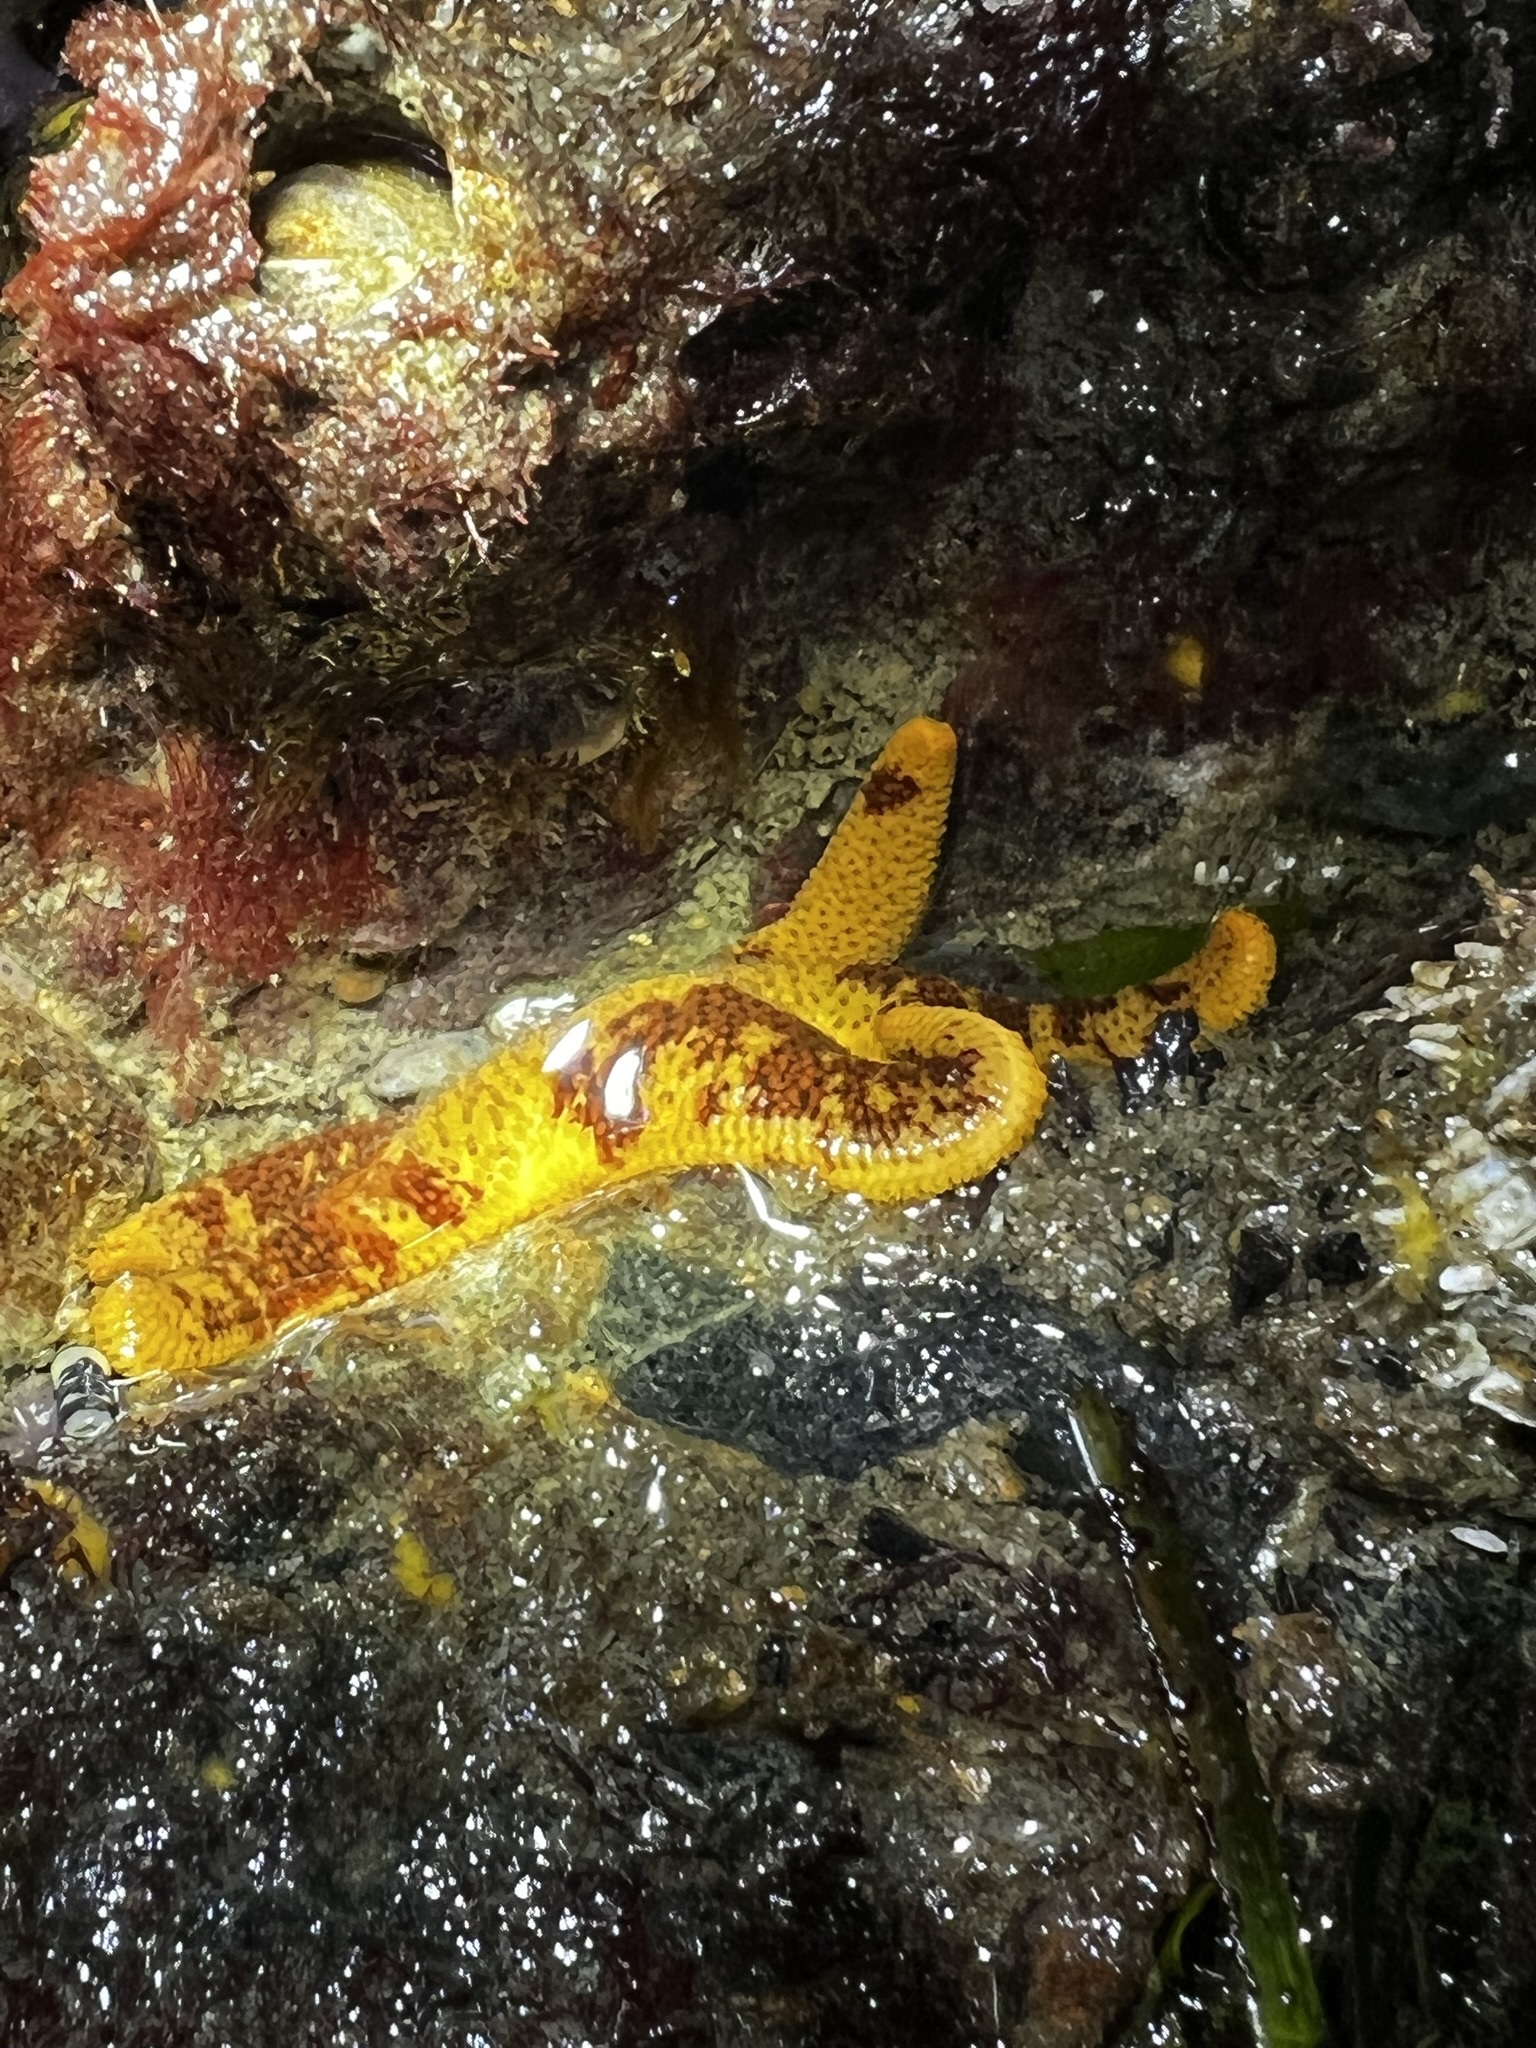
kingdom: Animalia
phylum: Echinodermata
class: Asteroidea
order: Spinulosida
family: Echinasteridae
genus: Henricia
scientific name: Henricia pumila
